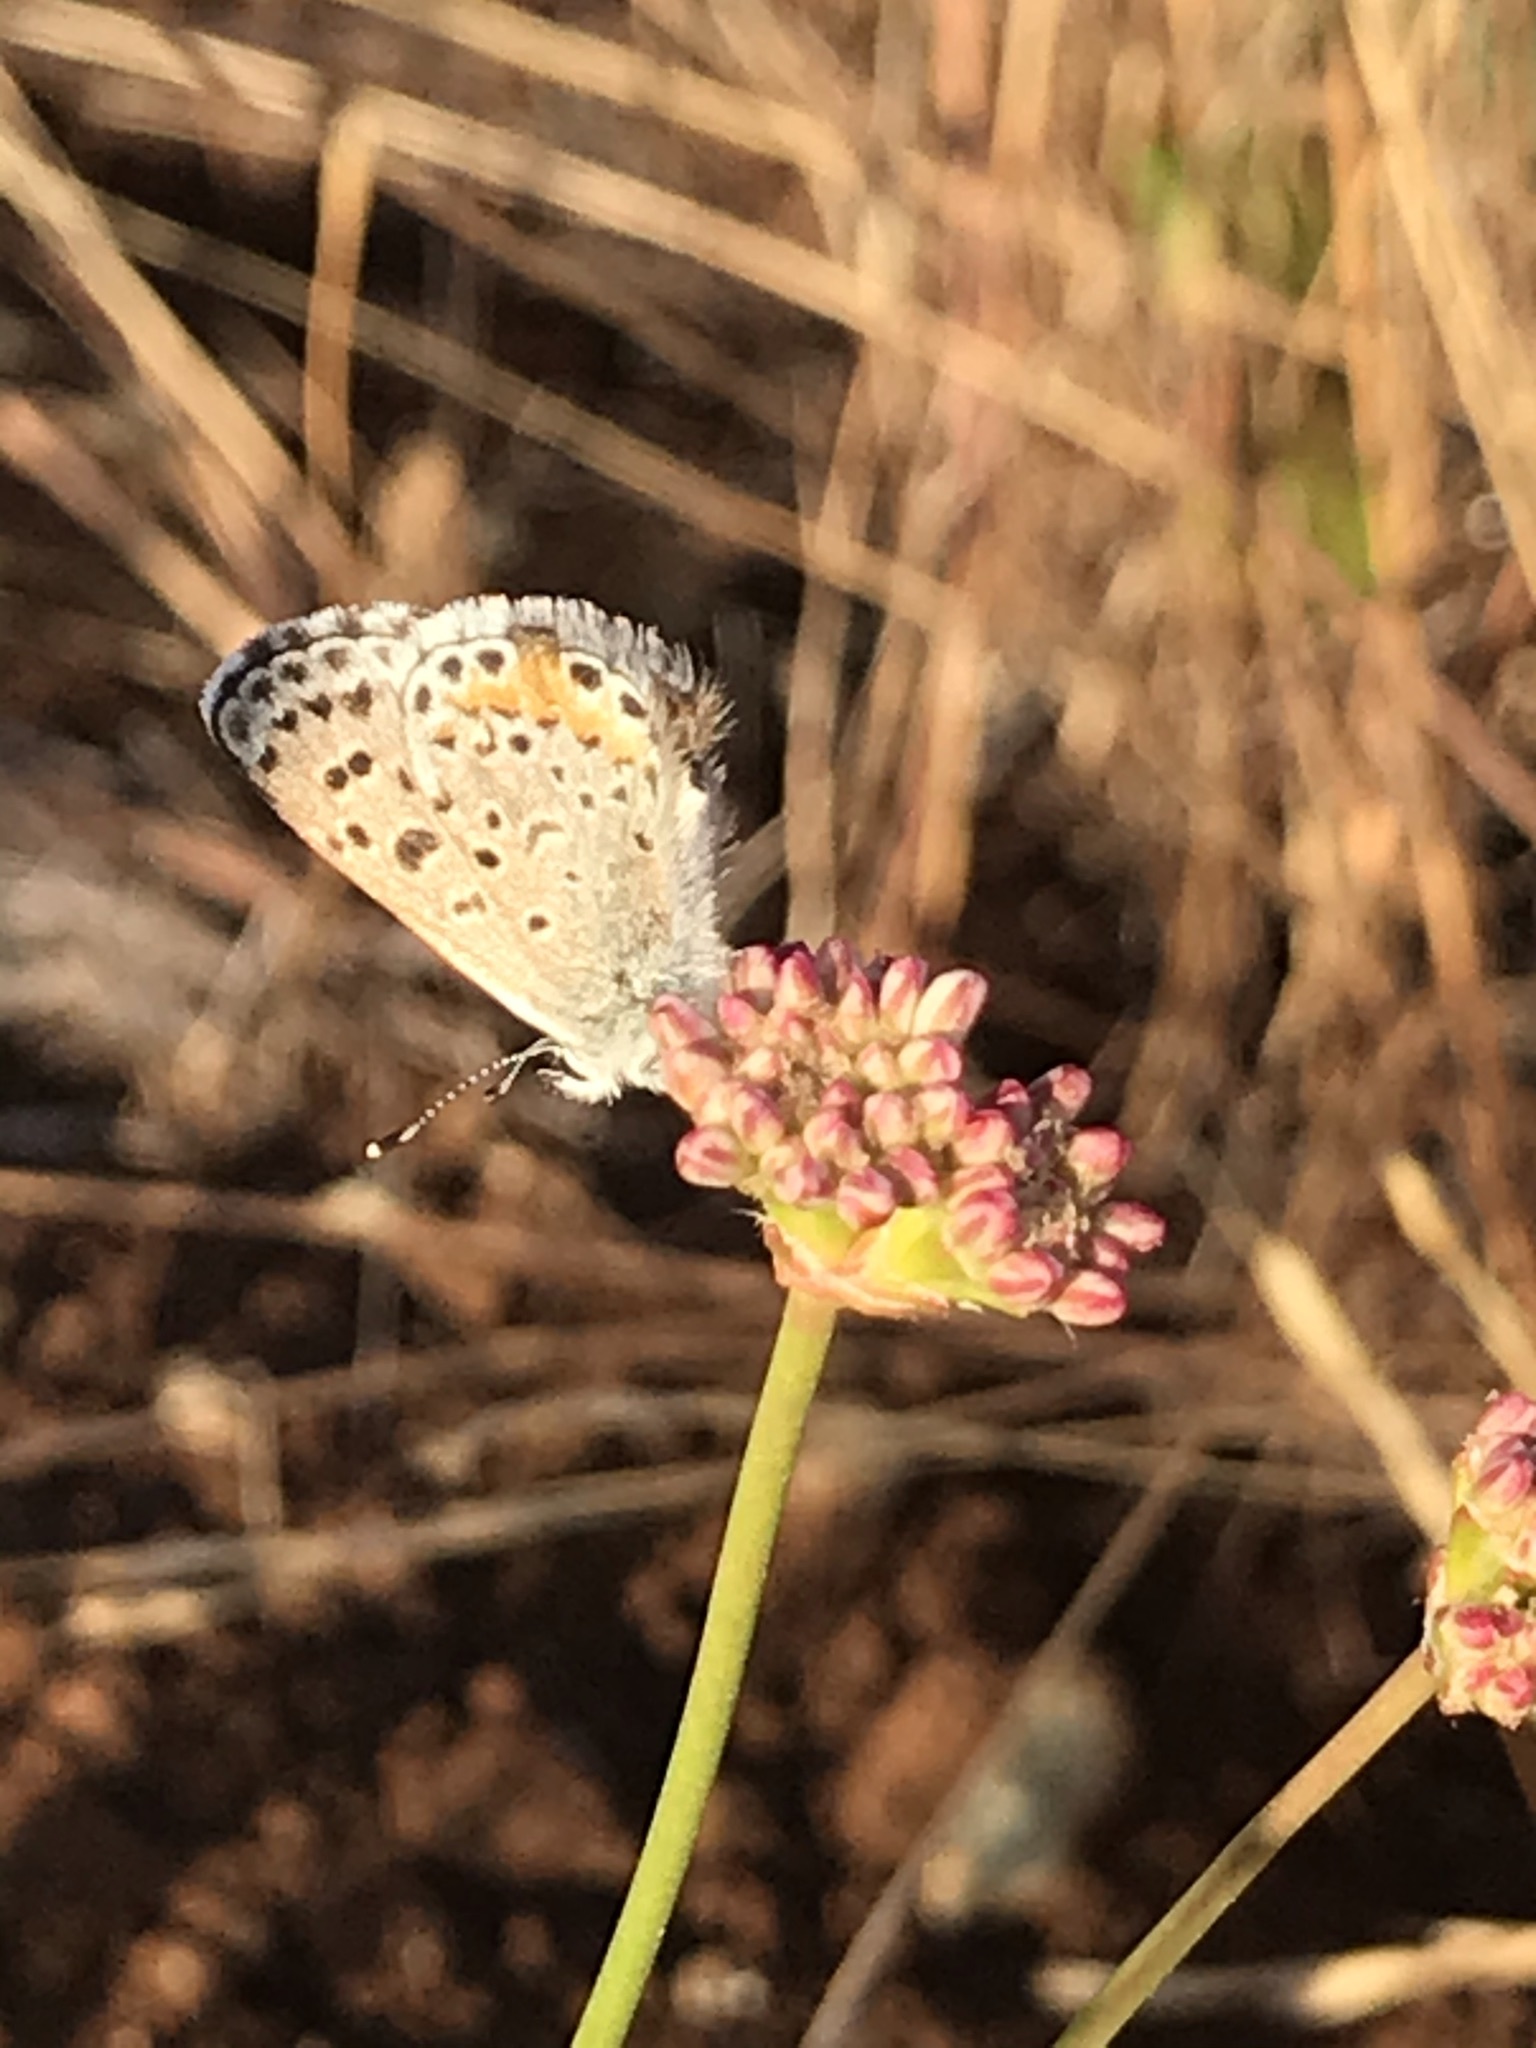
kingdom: Animalia
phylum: Arthropoda
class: Insecta
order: Lepidoptera
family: Lycaenidae
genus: Euphilotes
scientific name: Euphilotes enoptes
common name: Dotted blue
